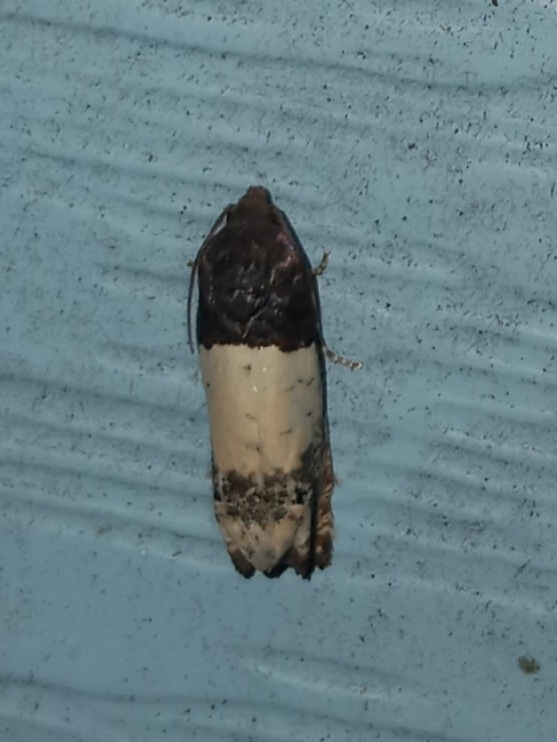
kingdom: Animalia
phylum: Arthropoda
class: Insecta
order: Lepidoptera
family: Tortricidae
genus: Epiblema
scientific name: Epiblema scudderiana
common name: Goldenrod gall moth
